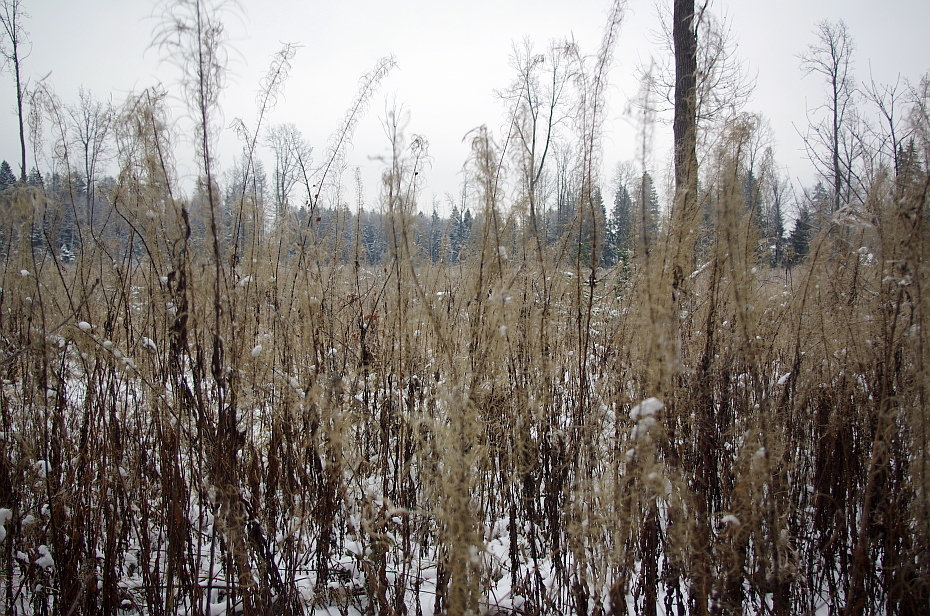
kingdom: Plantae
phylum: Tracheophyta
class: Magnoliopsida
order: Myrtales
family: Onagraceae
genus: Chamaenerion
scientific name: Chamaenerion angustifolium
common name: Fireweed
